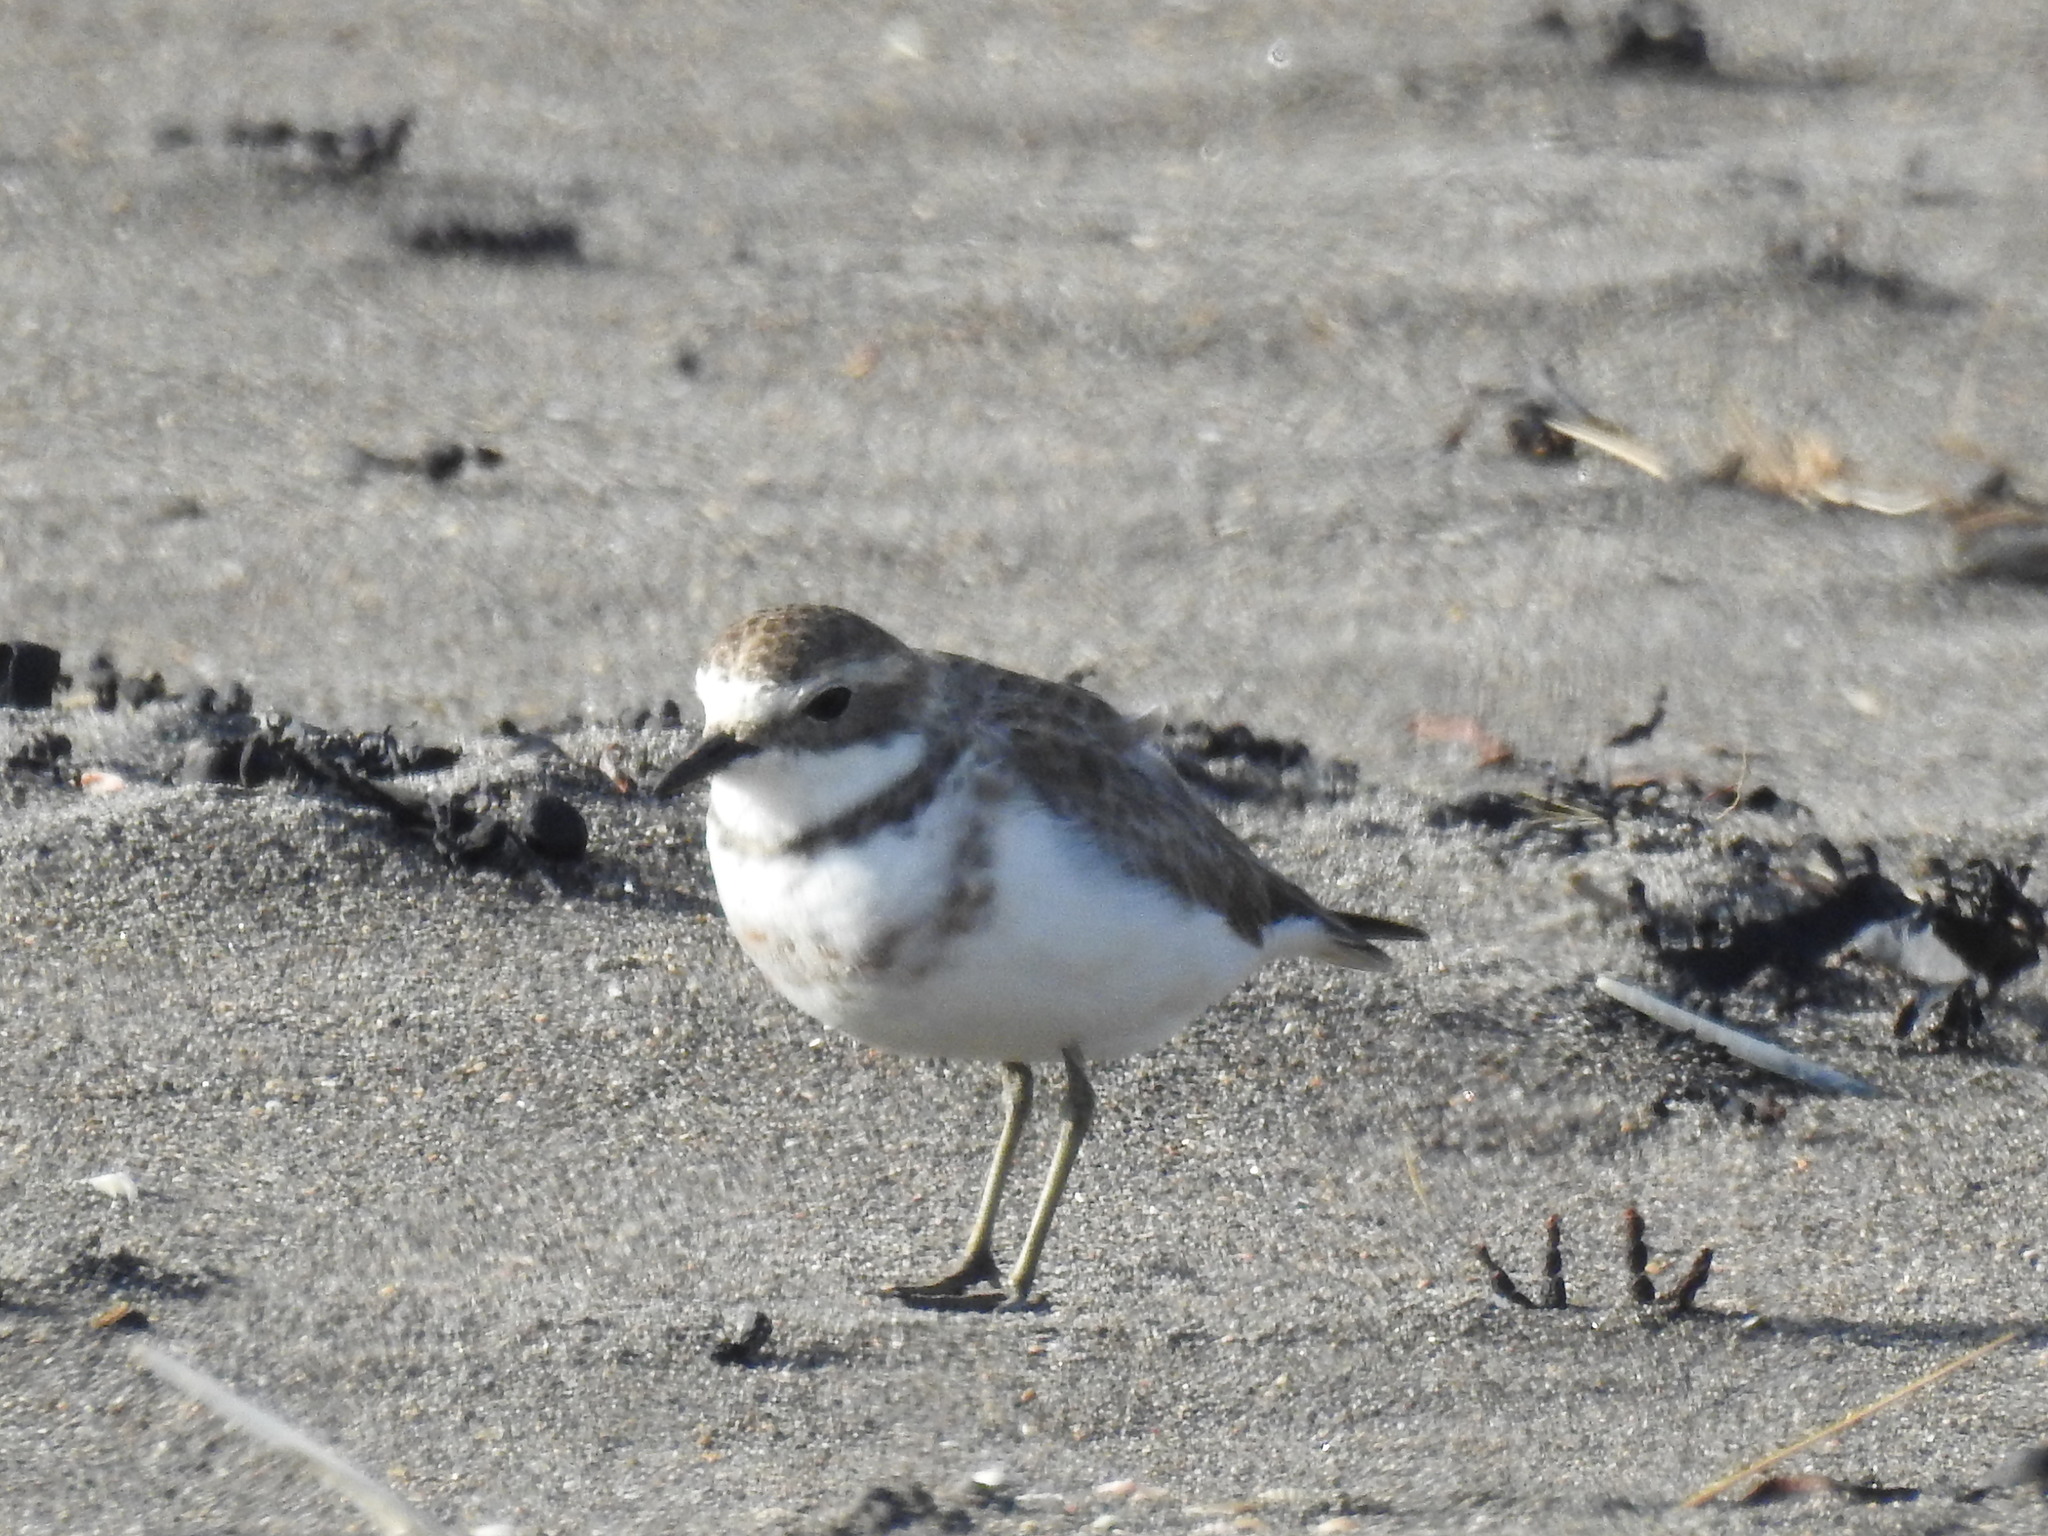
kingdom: Animalia
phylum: Chordata
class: Aves
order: Charadriiformes
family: Charadriidae
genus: Anarhynchus
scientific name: Anarhynchus
